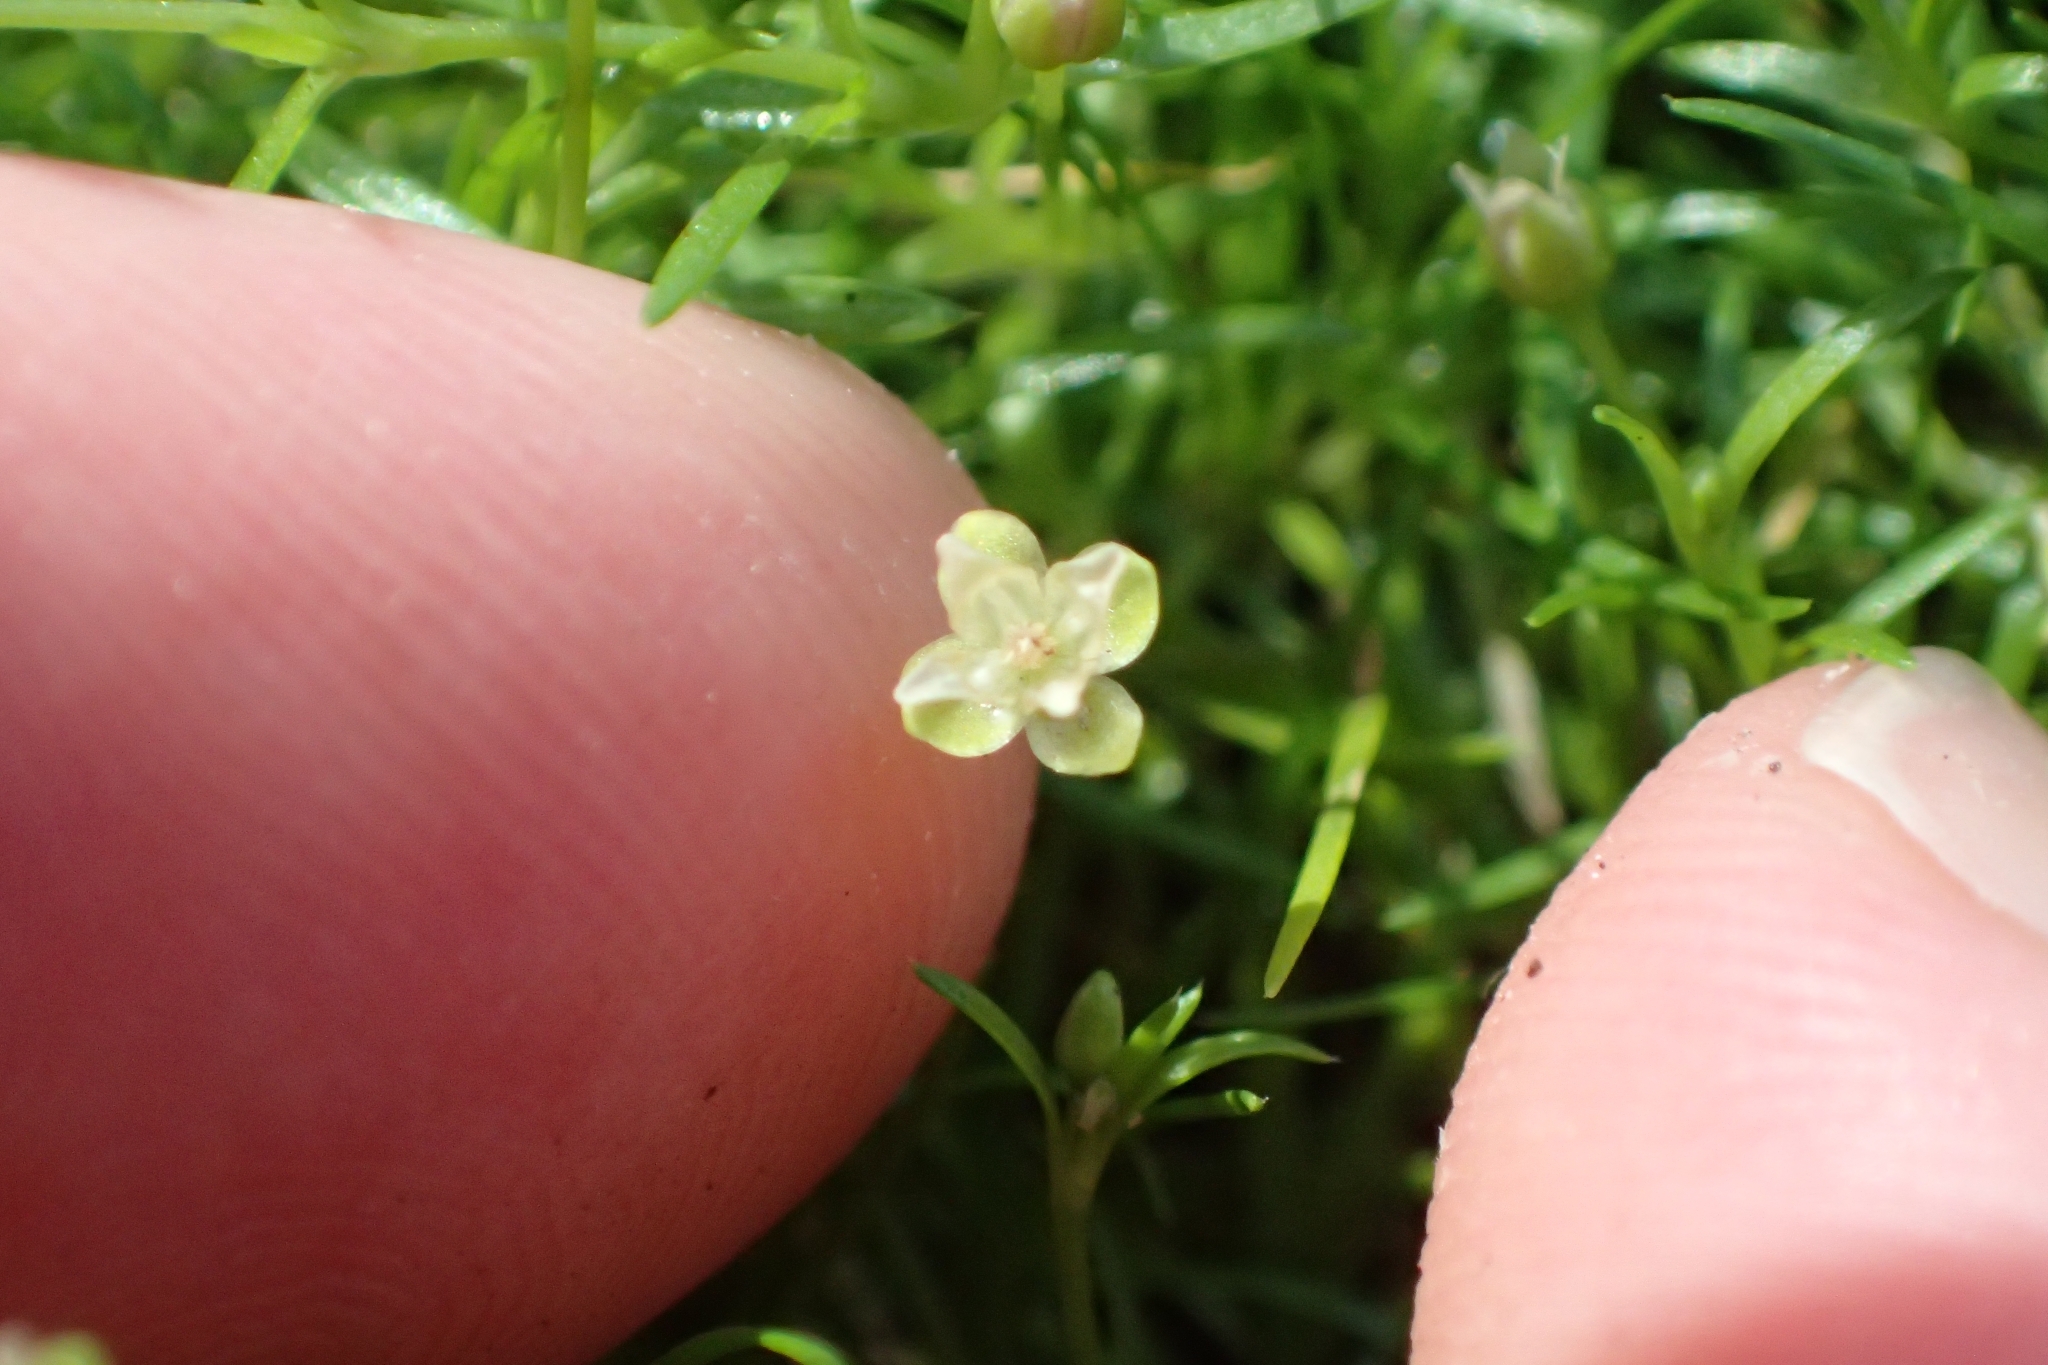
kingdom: Plantae
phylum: Tracheophyta
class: Magnoliopsida
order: Caryophyllales
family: Caryophyllaceae
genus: Sagina
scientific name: Sagina procumbens
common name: Procumbent pearlwort
